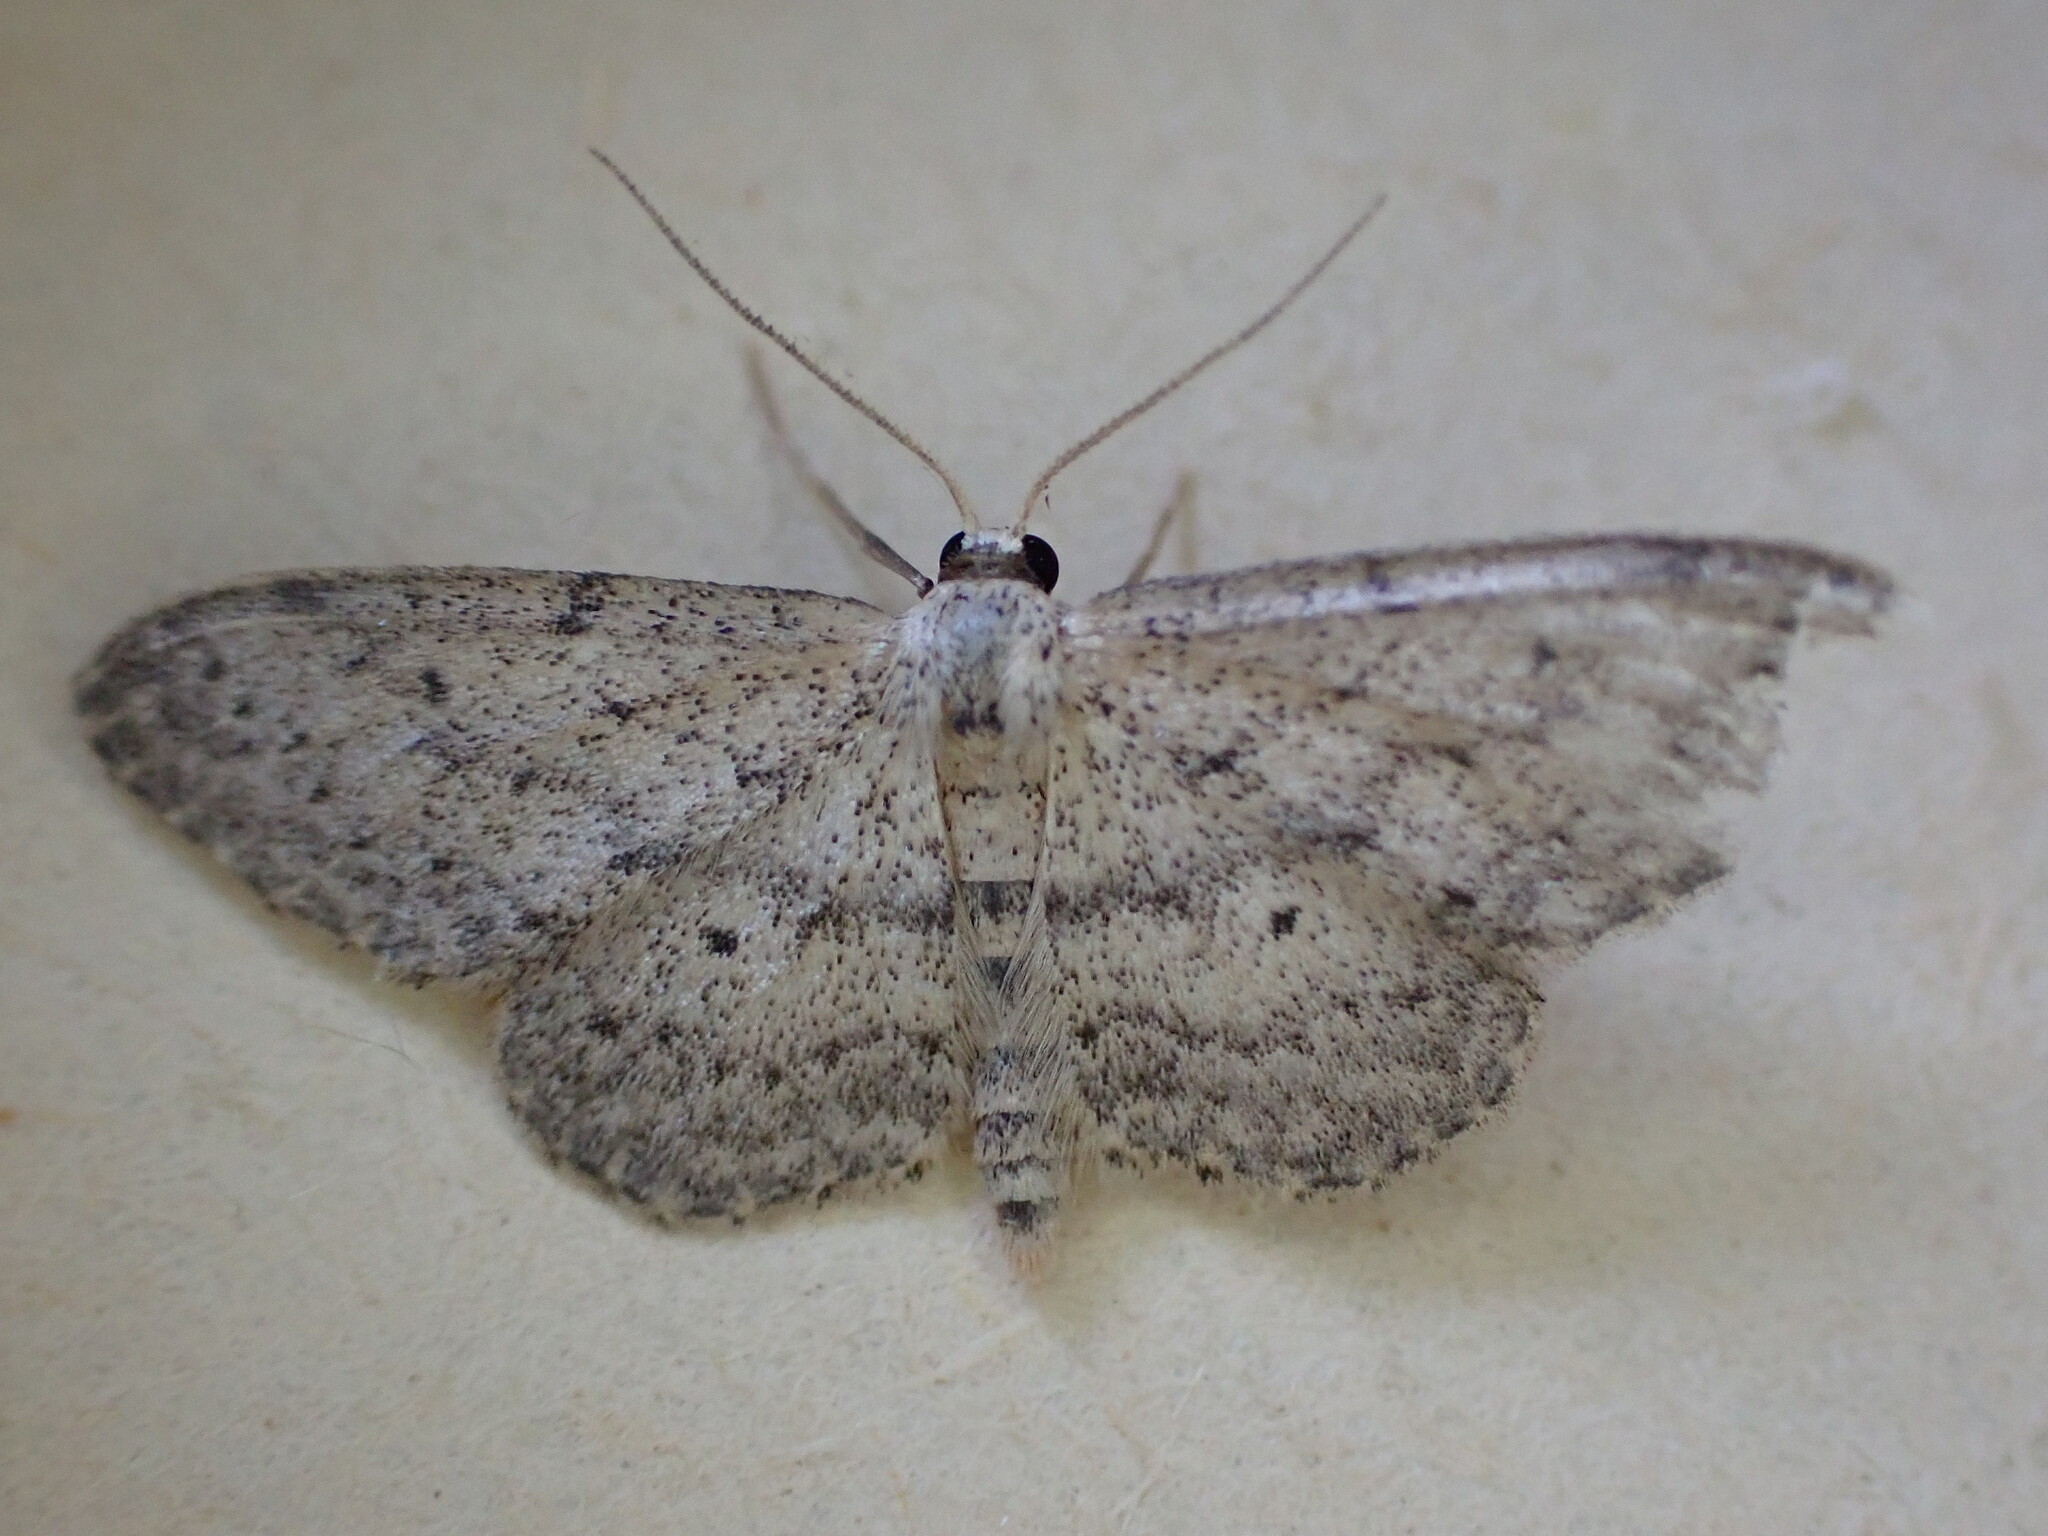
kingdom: Animalia
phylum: Arthropoda
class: Insecta
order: Lepidoptera
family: Geometridae
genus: Idaea
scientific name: Idaea seriata
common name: Small dusty wave
